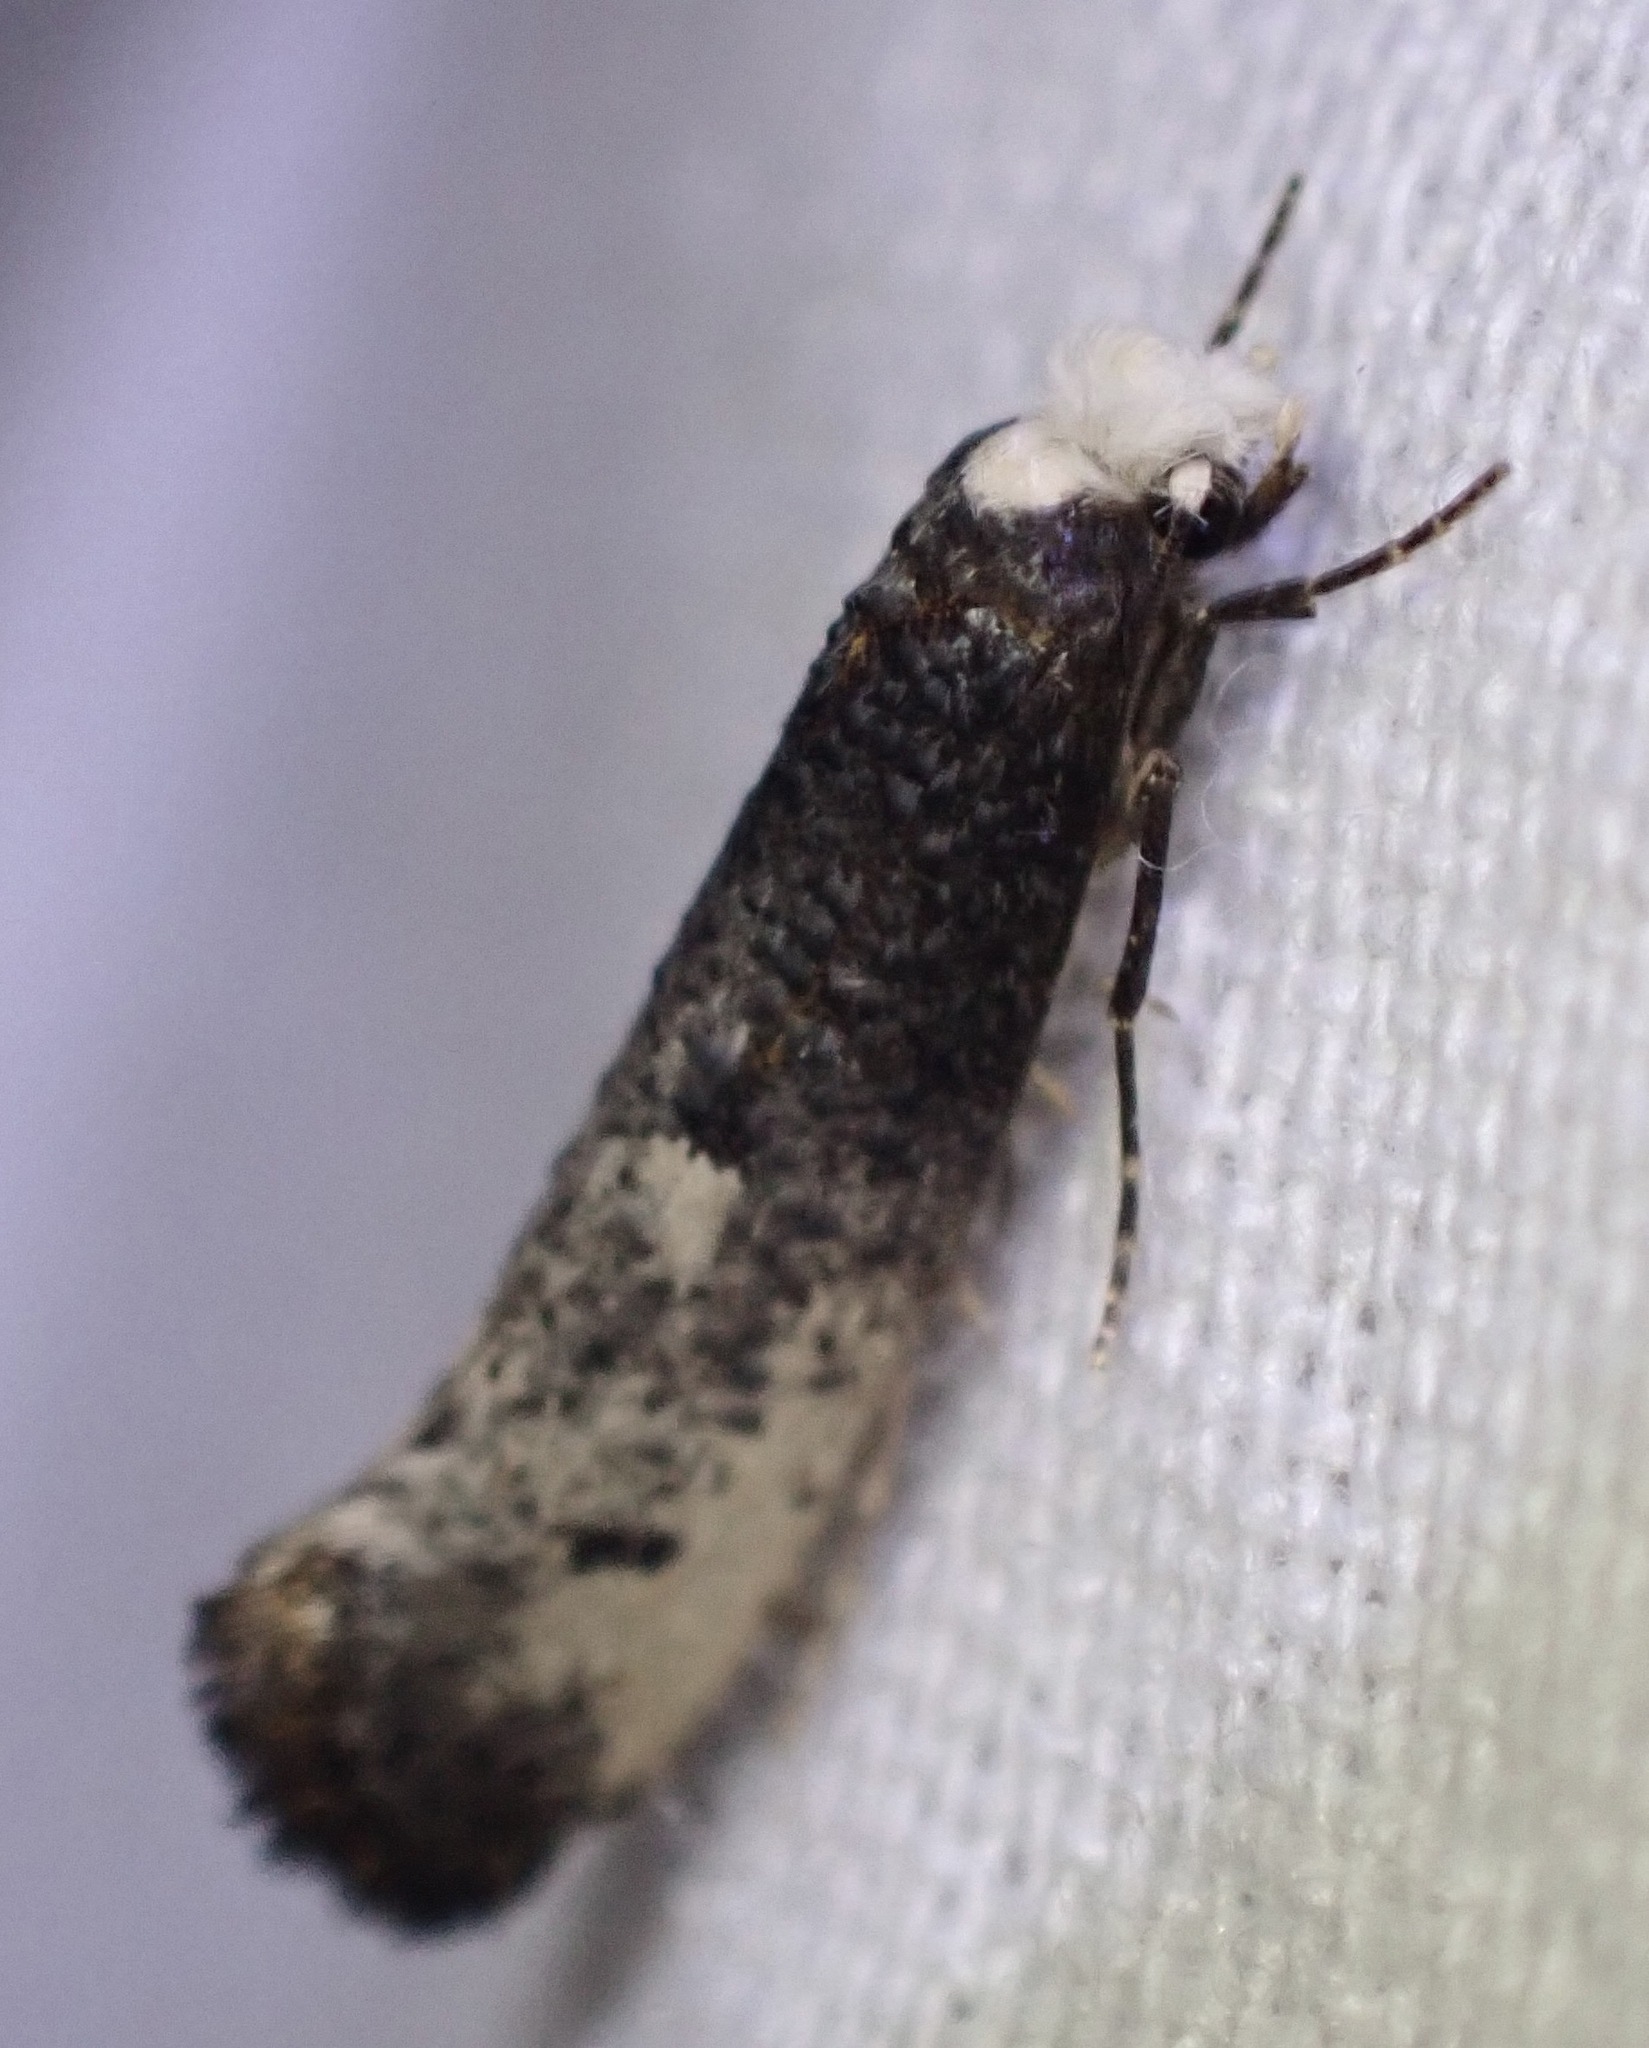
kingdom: Animalia
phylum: Arthropoda
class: Insecta
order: Lepidoptera
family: Tineidae
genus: Tinea
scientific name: Tinea occidentella
